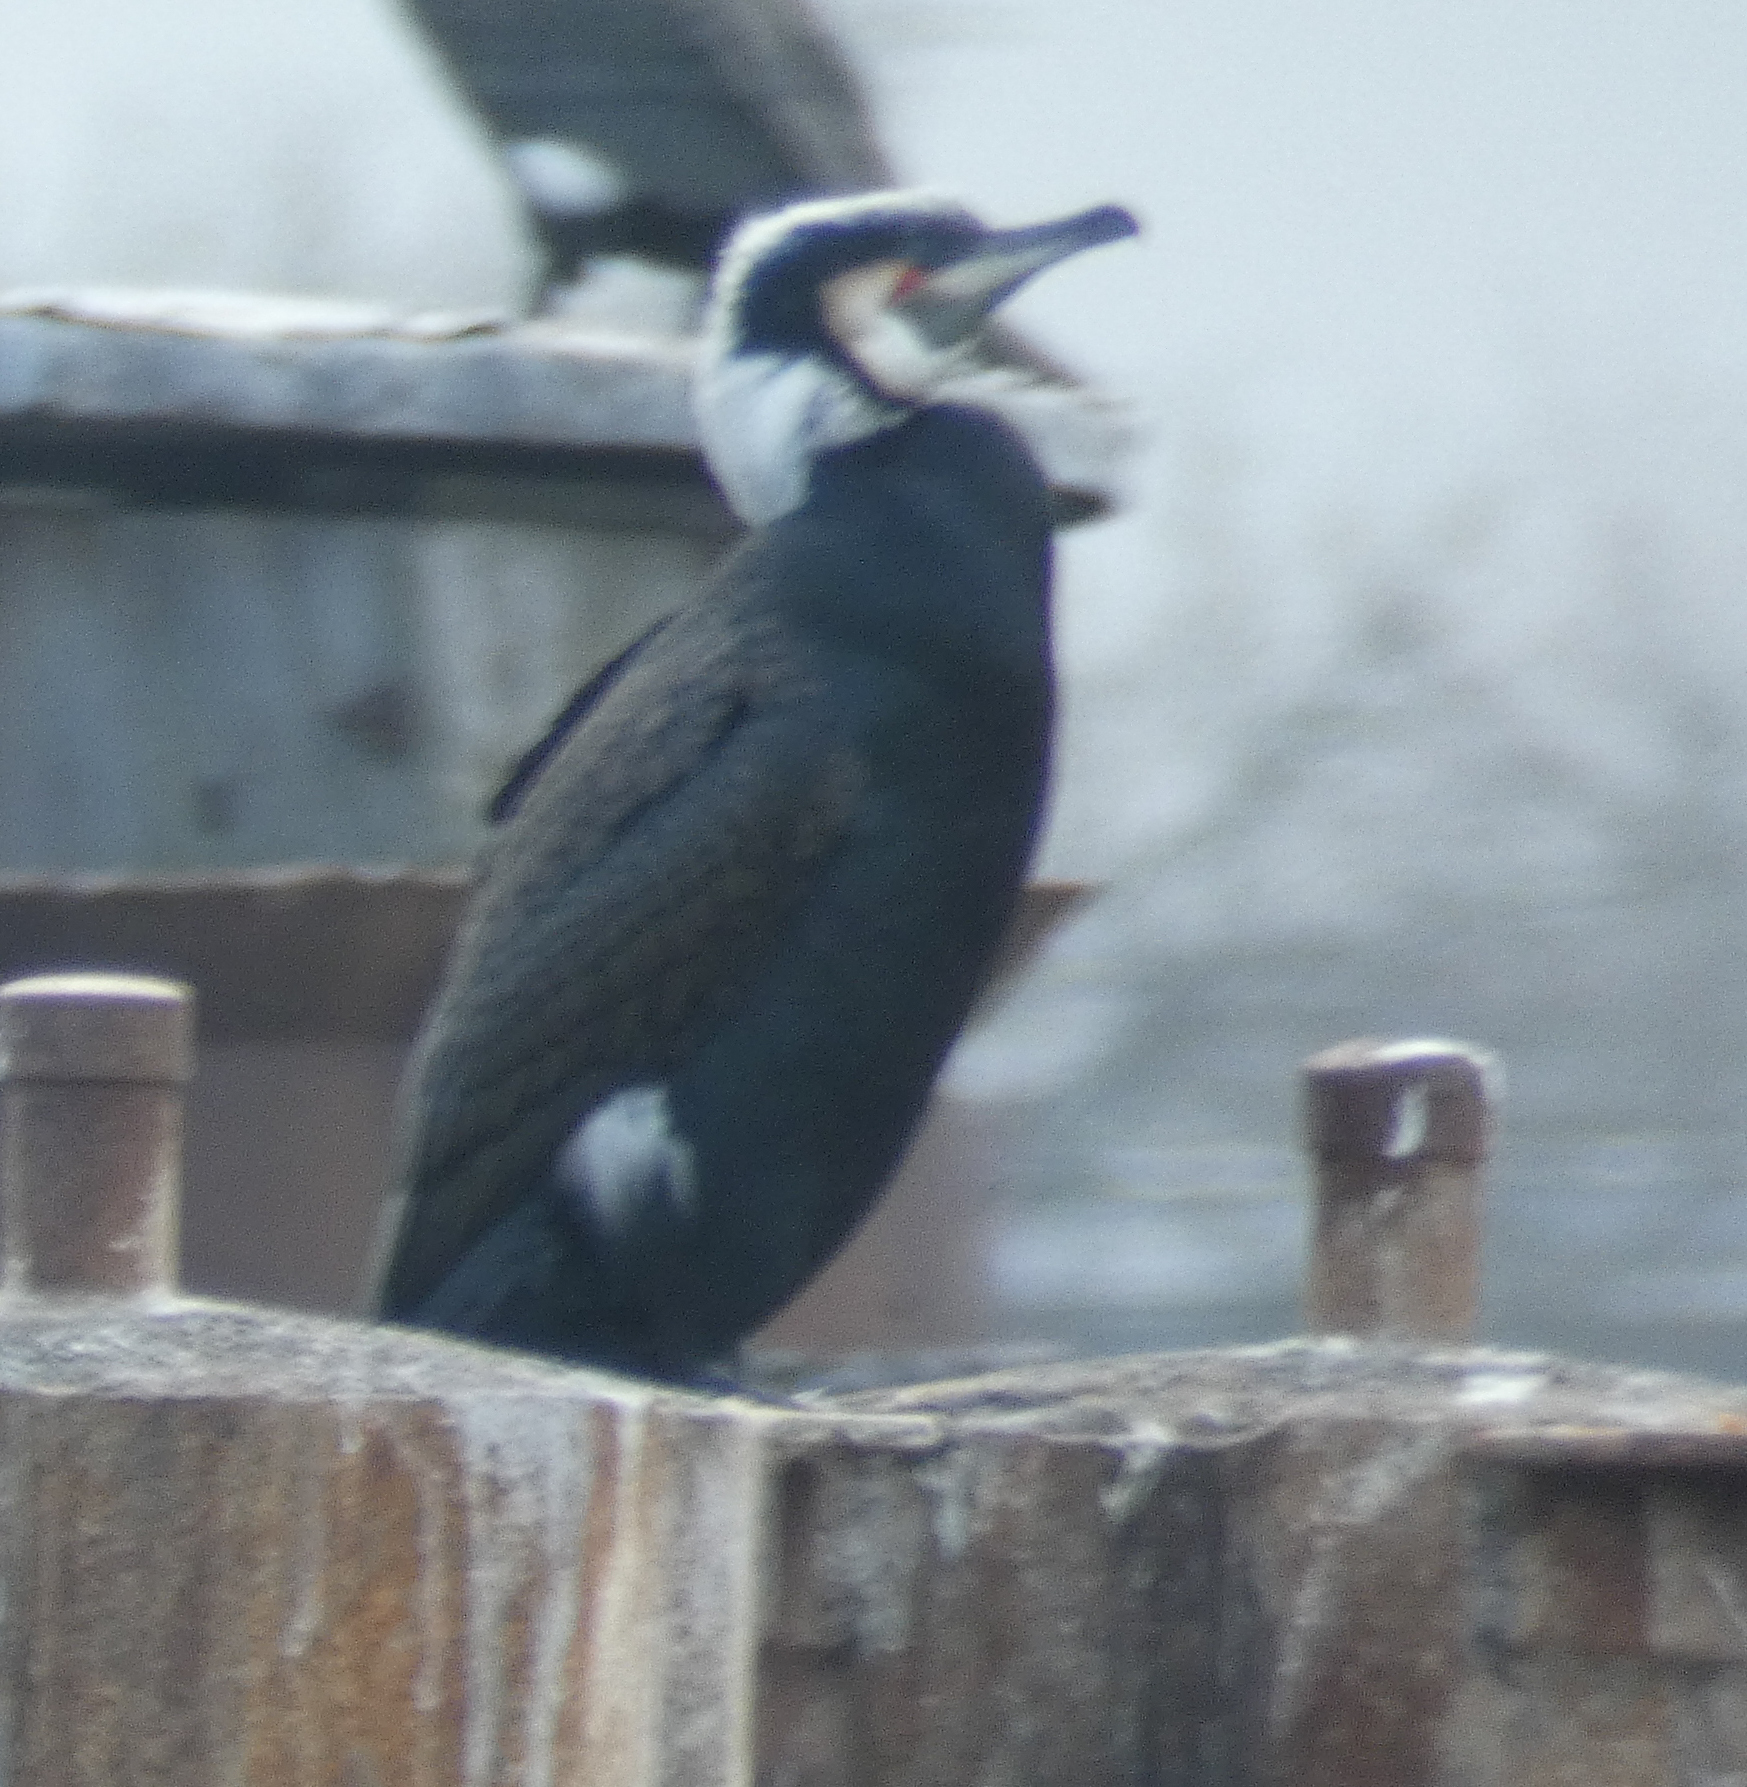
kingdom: Animalia
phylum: Chordata
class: Aves
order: Suliformes
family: Phalacrocoracidae
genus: Phalacrocorax
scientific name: Phalacrocorax carbo
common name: Great cormorant
